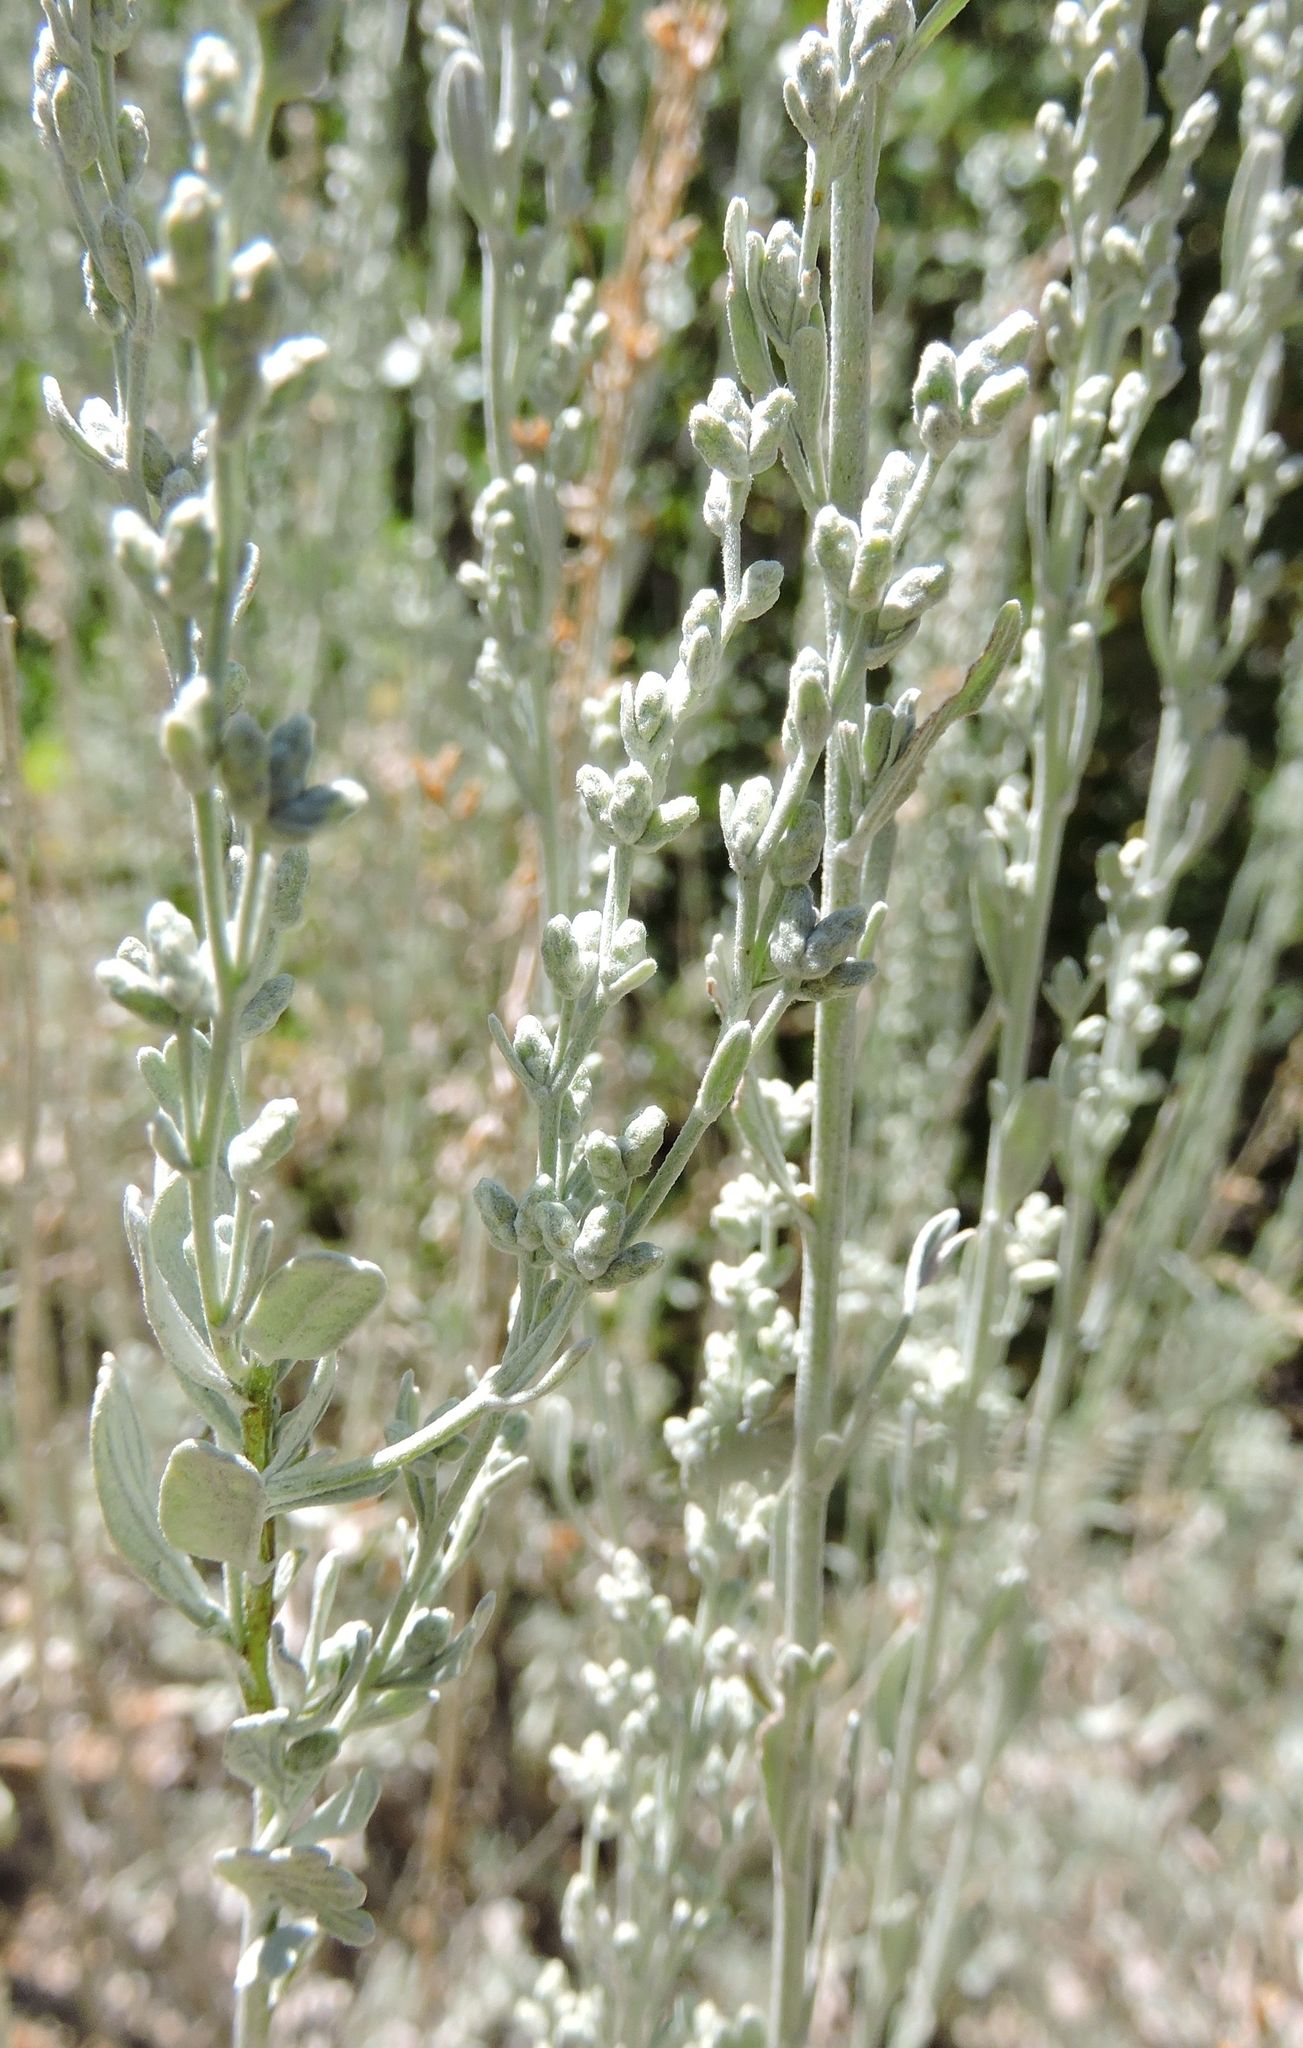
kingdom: Plantae
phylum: Tracheophyta
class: Magnoliopsida
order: Asterales
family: Asteraceae
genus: Artemisia
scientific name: Artemisia tridentata
